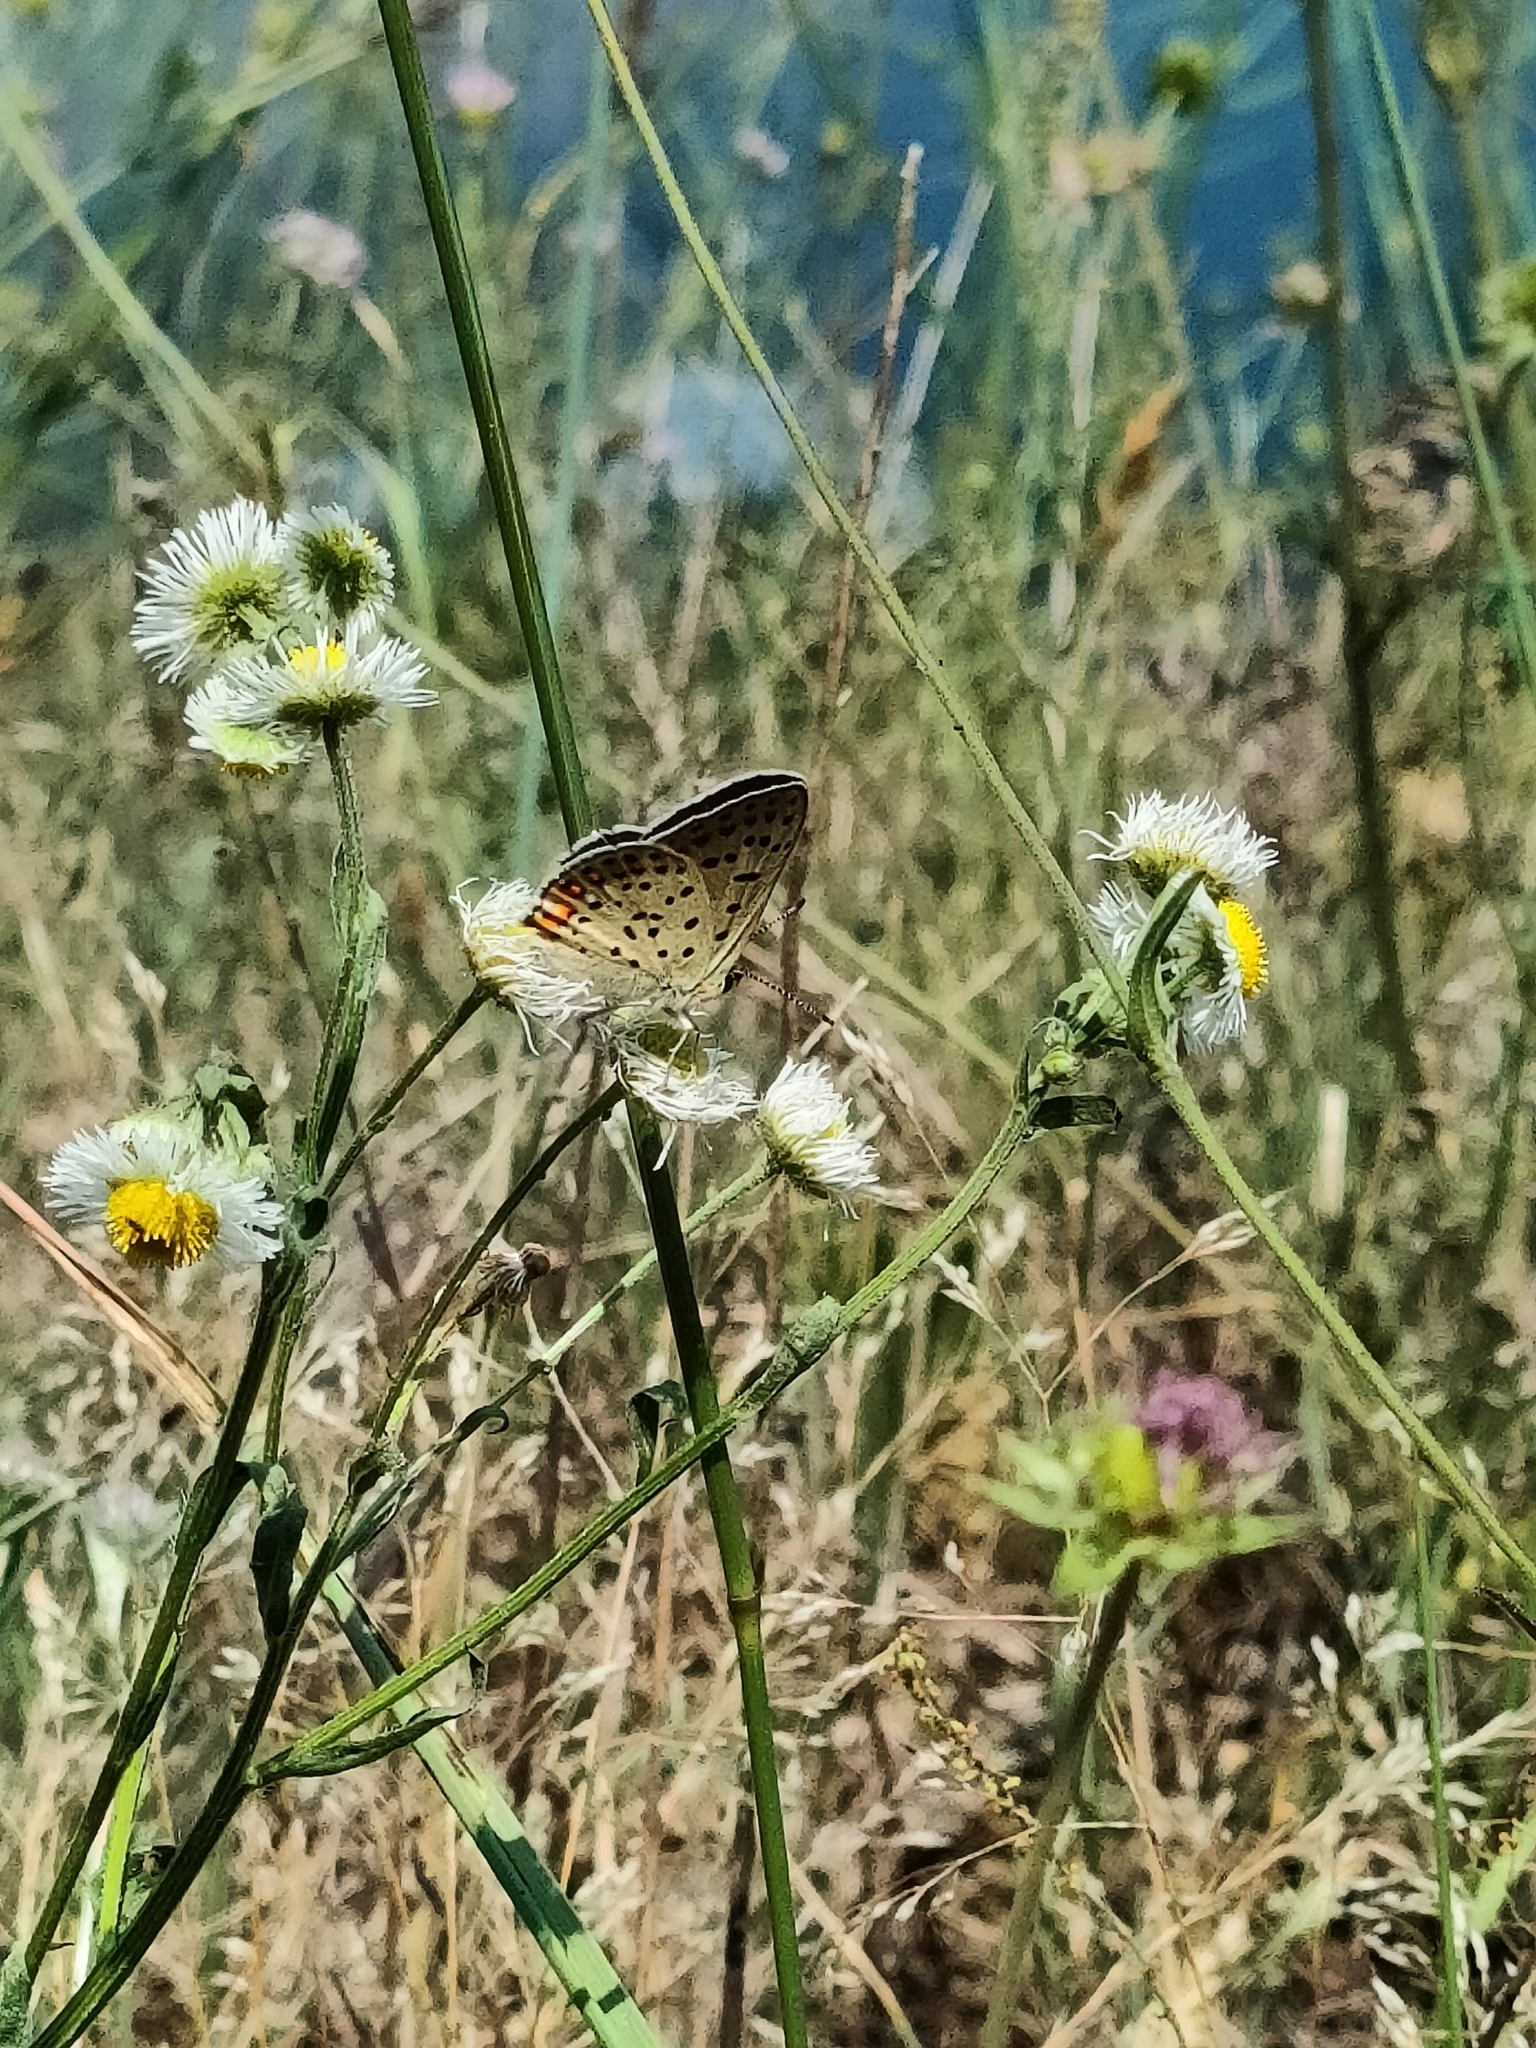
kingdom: Animalia
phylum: Arthropoda
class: Insecta
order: Lepidoptera
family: Lycaenidae
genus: Loweia
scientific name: Loweia tityrus
